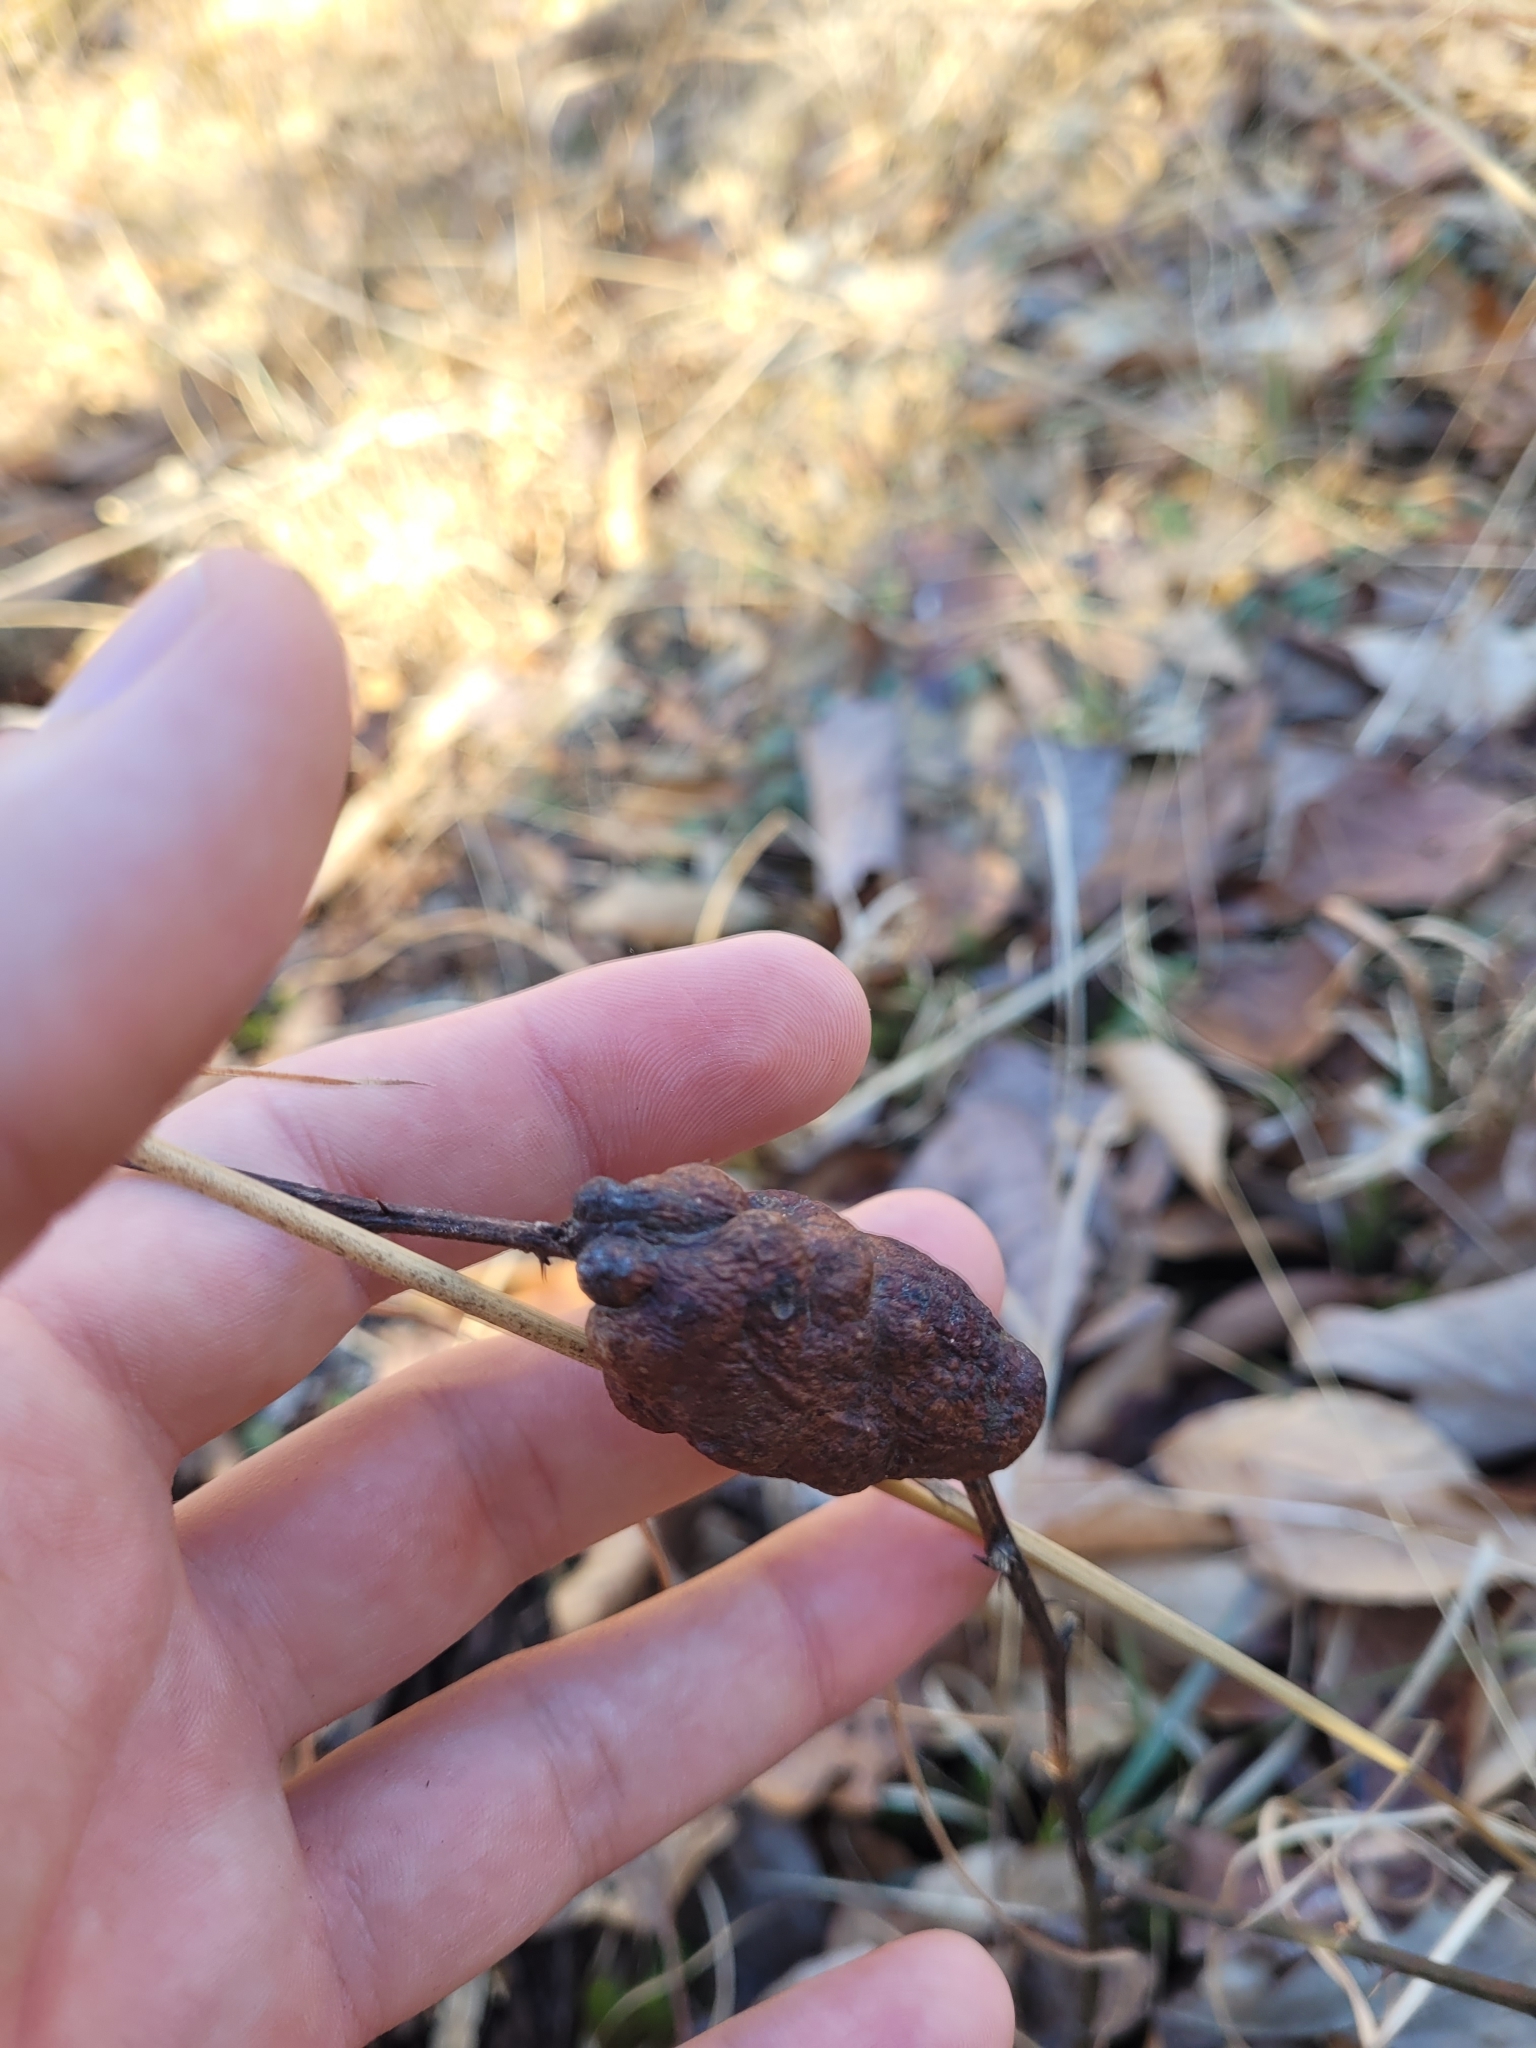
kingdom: Animalia
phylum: Arthropoda
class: Insecta
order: Hymenoptera
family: Cynipidae
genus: Diastrophus
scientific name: Diastrophus
